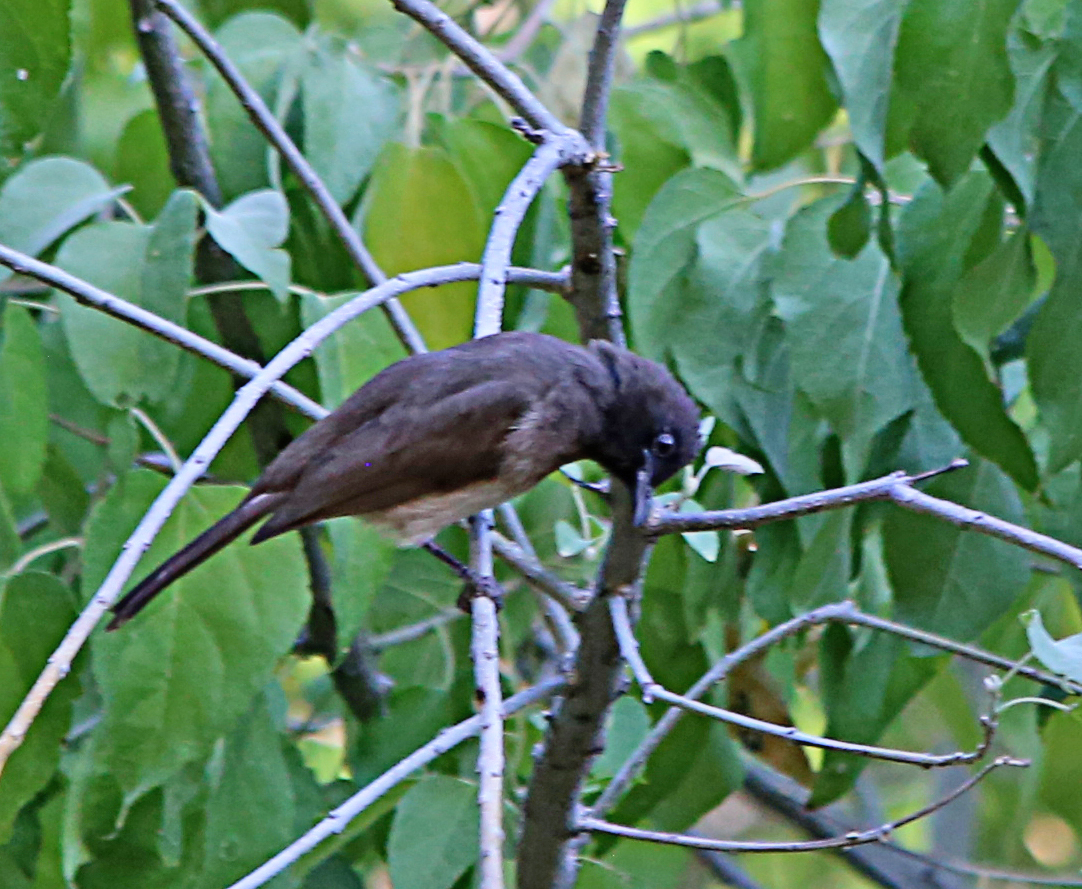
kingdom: Animalia
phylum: Chordata
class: Aves
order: Passeriformes
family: Pycnonotidae
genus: Pycnonotus
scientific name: Pycnonotus barbatus
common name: Common bulbul
